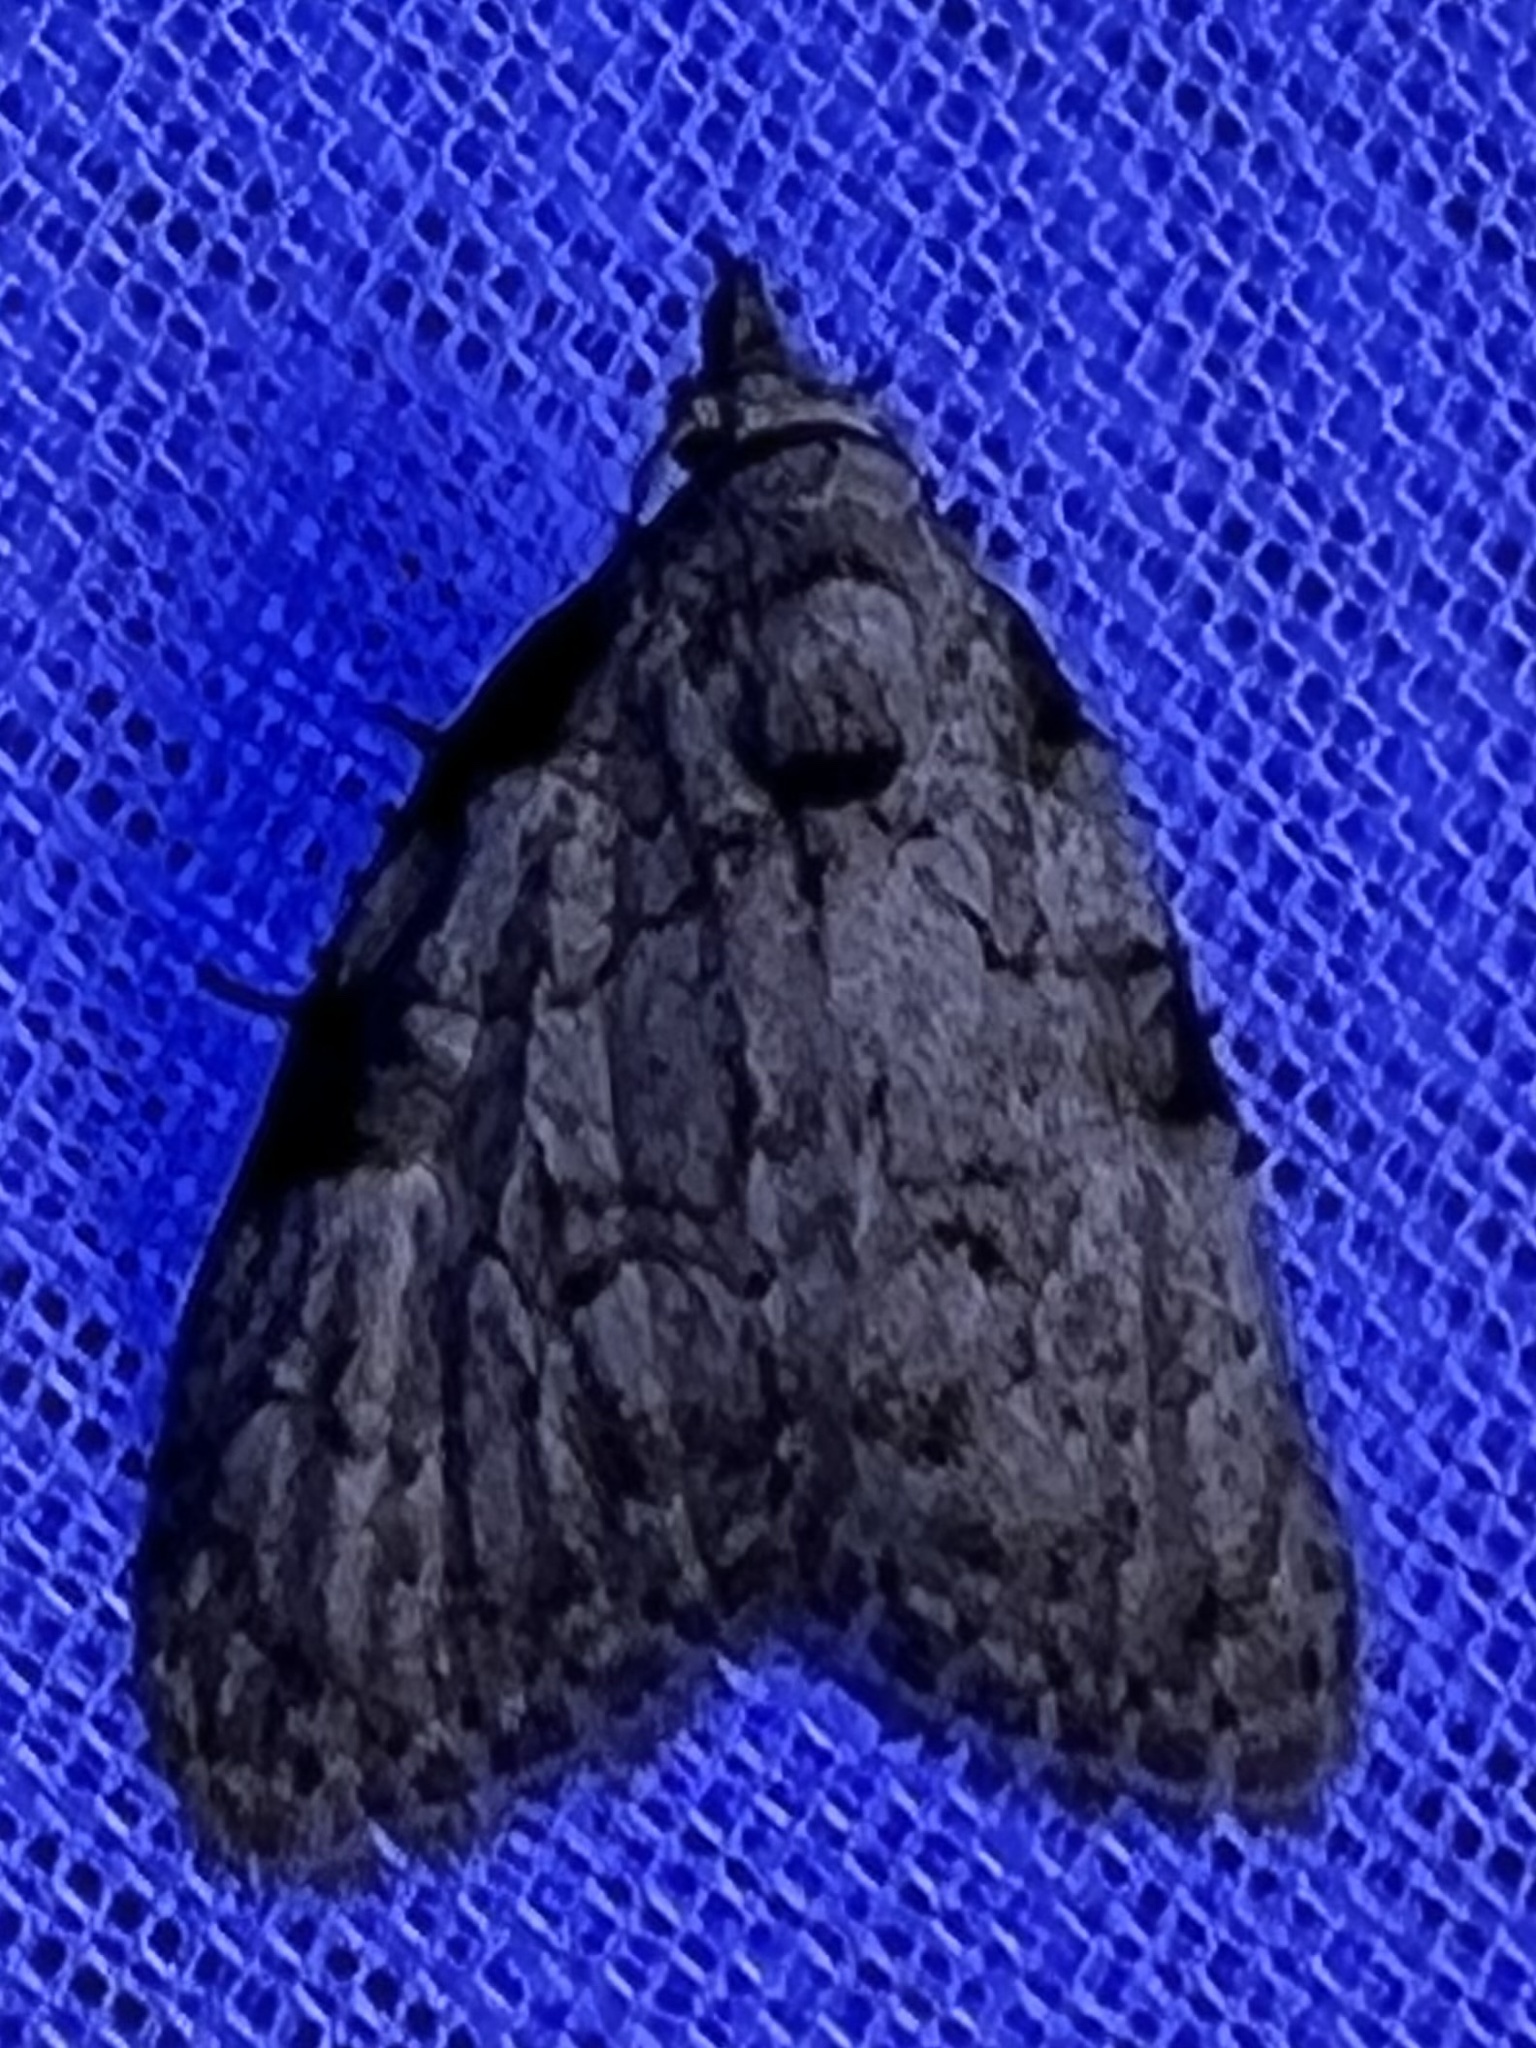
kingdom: Animalia
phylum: Arthropoda
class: Insecta
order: Lepidoptera
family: Nolidae
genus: Meganola
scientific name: Meganola minuscula
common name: Confused meganola moth
